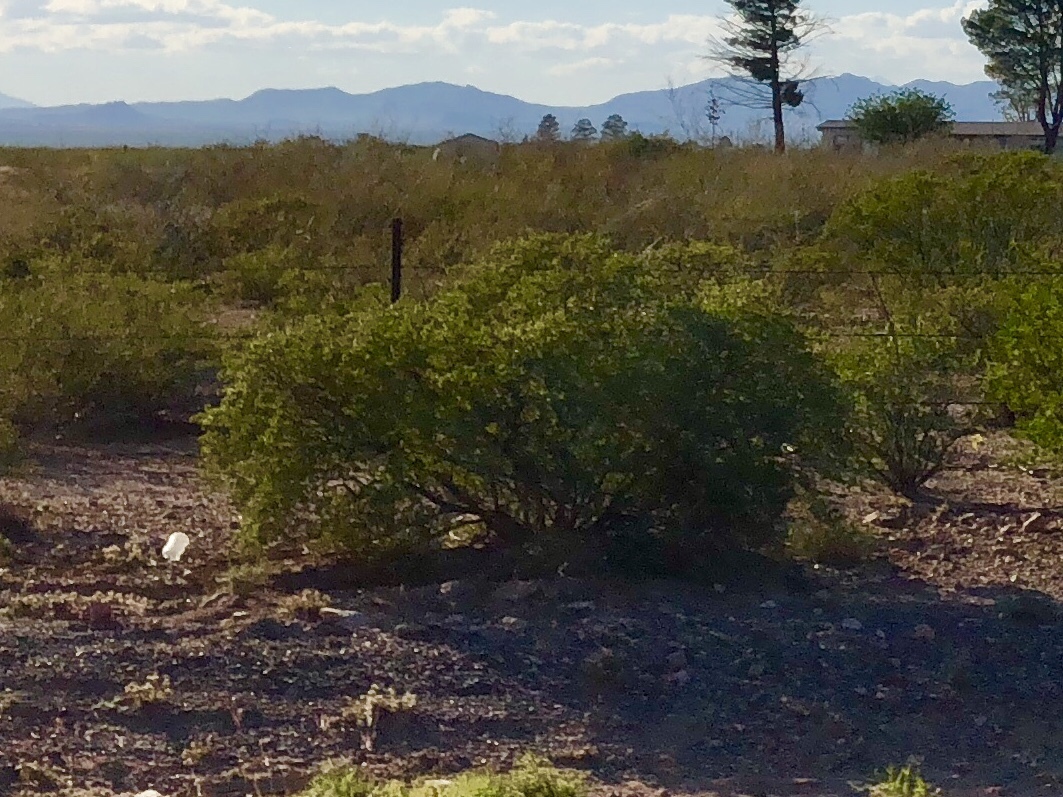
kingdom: Plantae
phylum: Tracheophyta
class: Magnoliopsida
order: Zygophyllales
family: Zygophyllaceae
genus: Larrea
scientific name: Larrea tridentata
